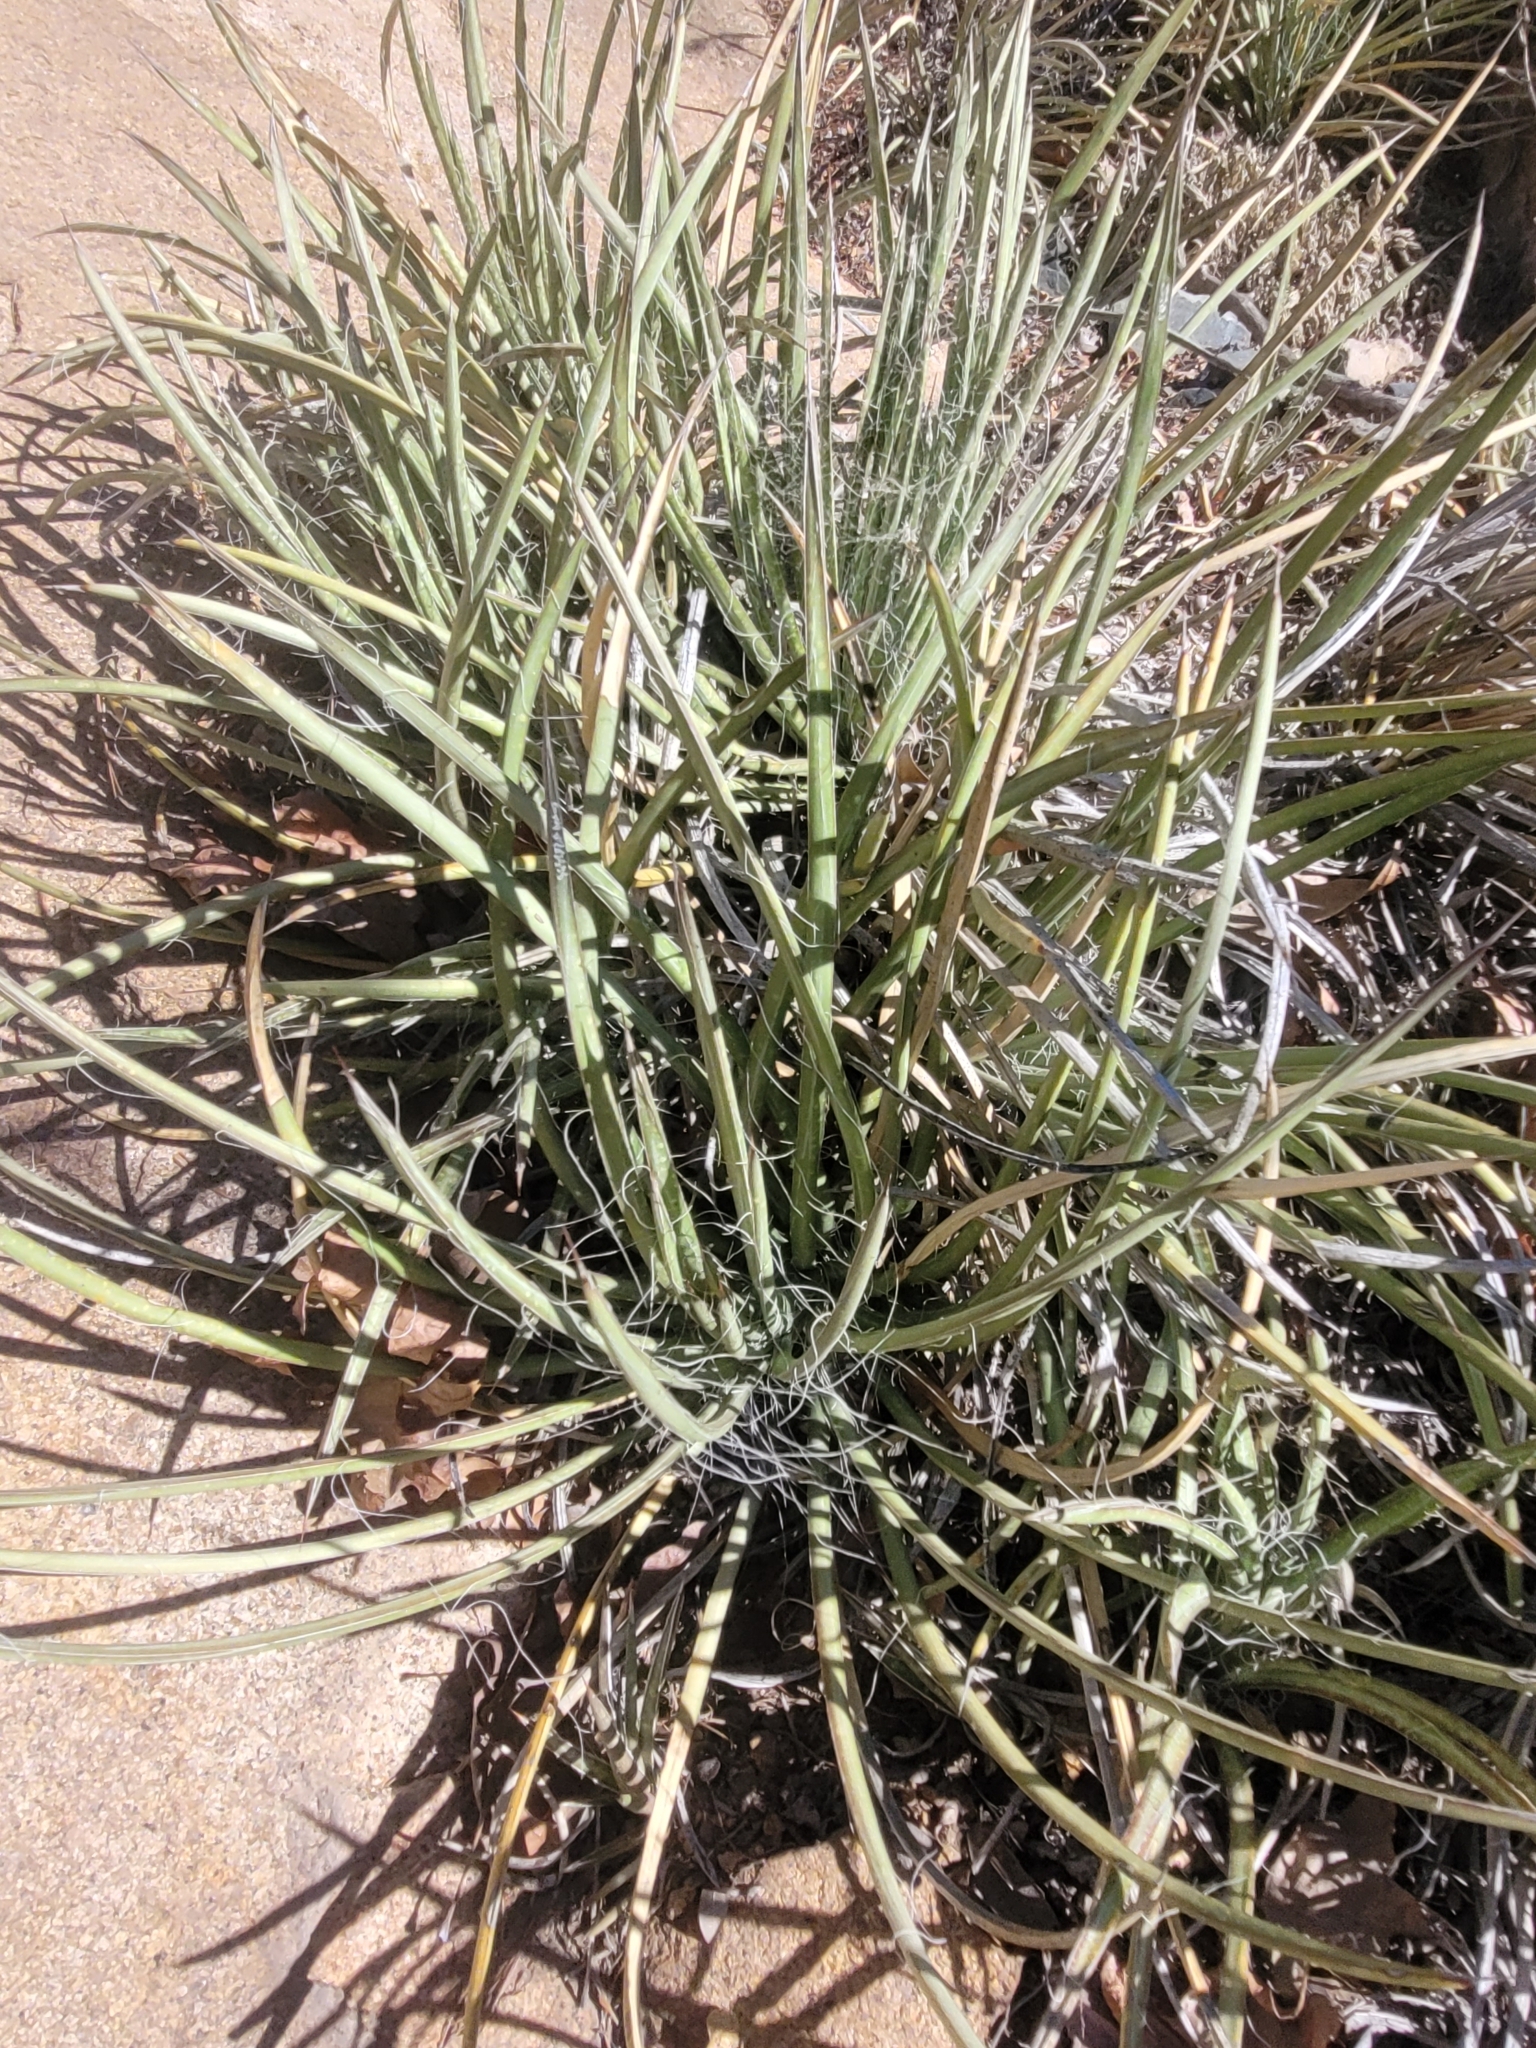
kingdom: Plantae
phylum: Tracheophyta
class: Liliopsida
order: Asparagales
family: Asparagaceae
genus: Agave
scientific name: Agave schottii
